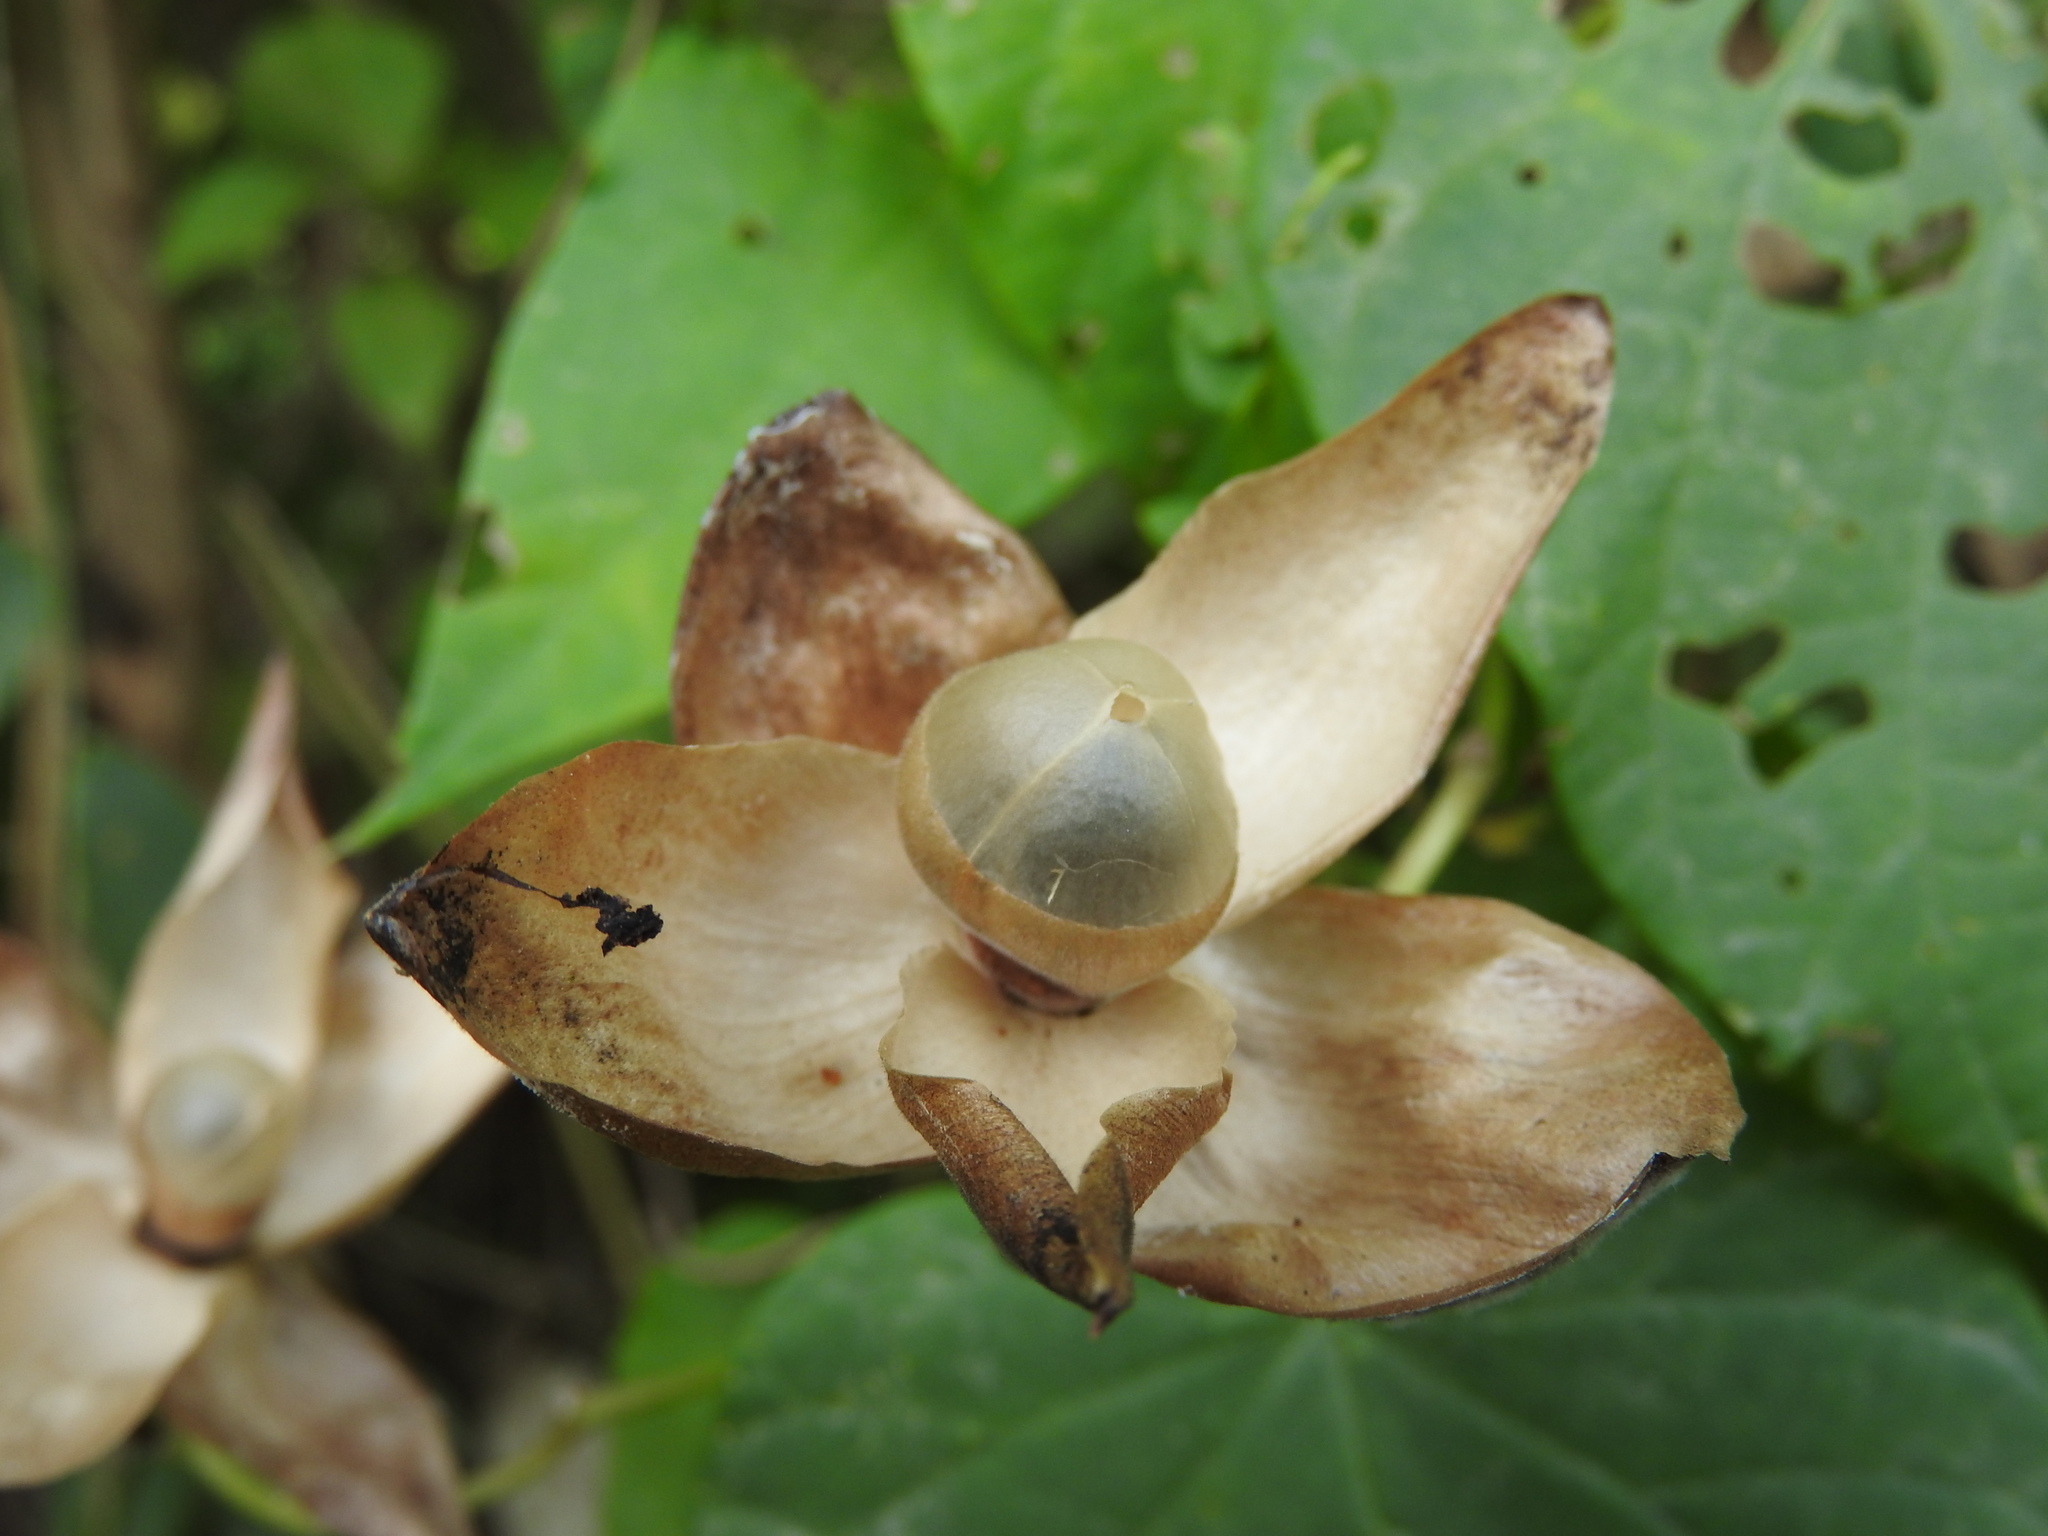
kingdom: Plantae
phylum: Tracheophyta
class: Magnoliopsida
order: Solanales
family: Convolvulaceae
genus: Operculina
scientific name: Operculina pteripes
